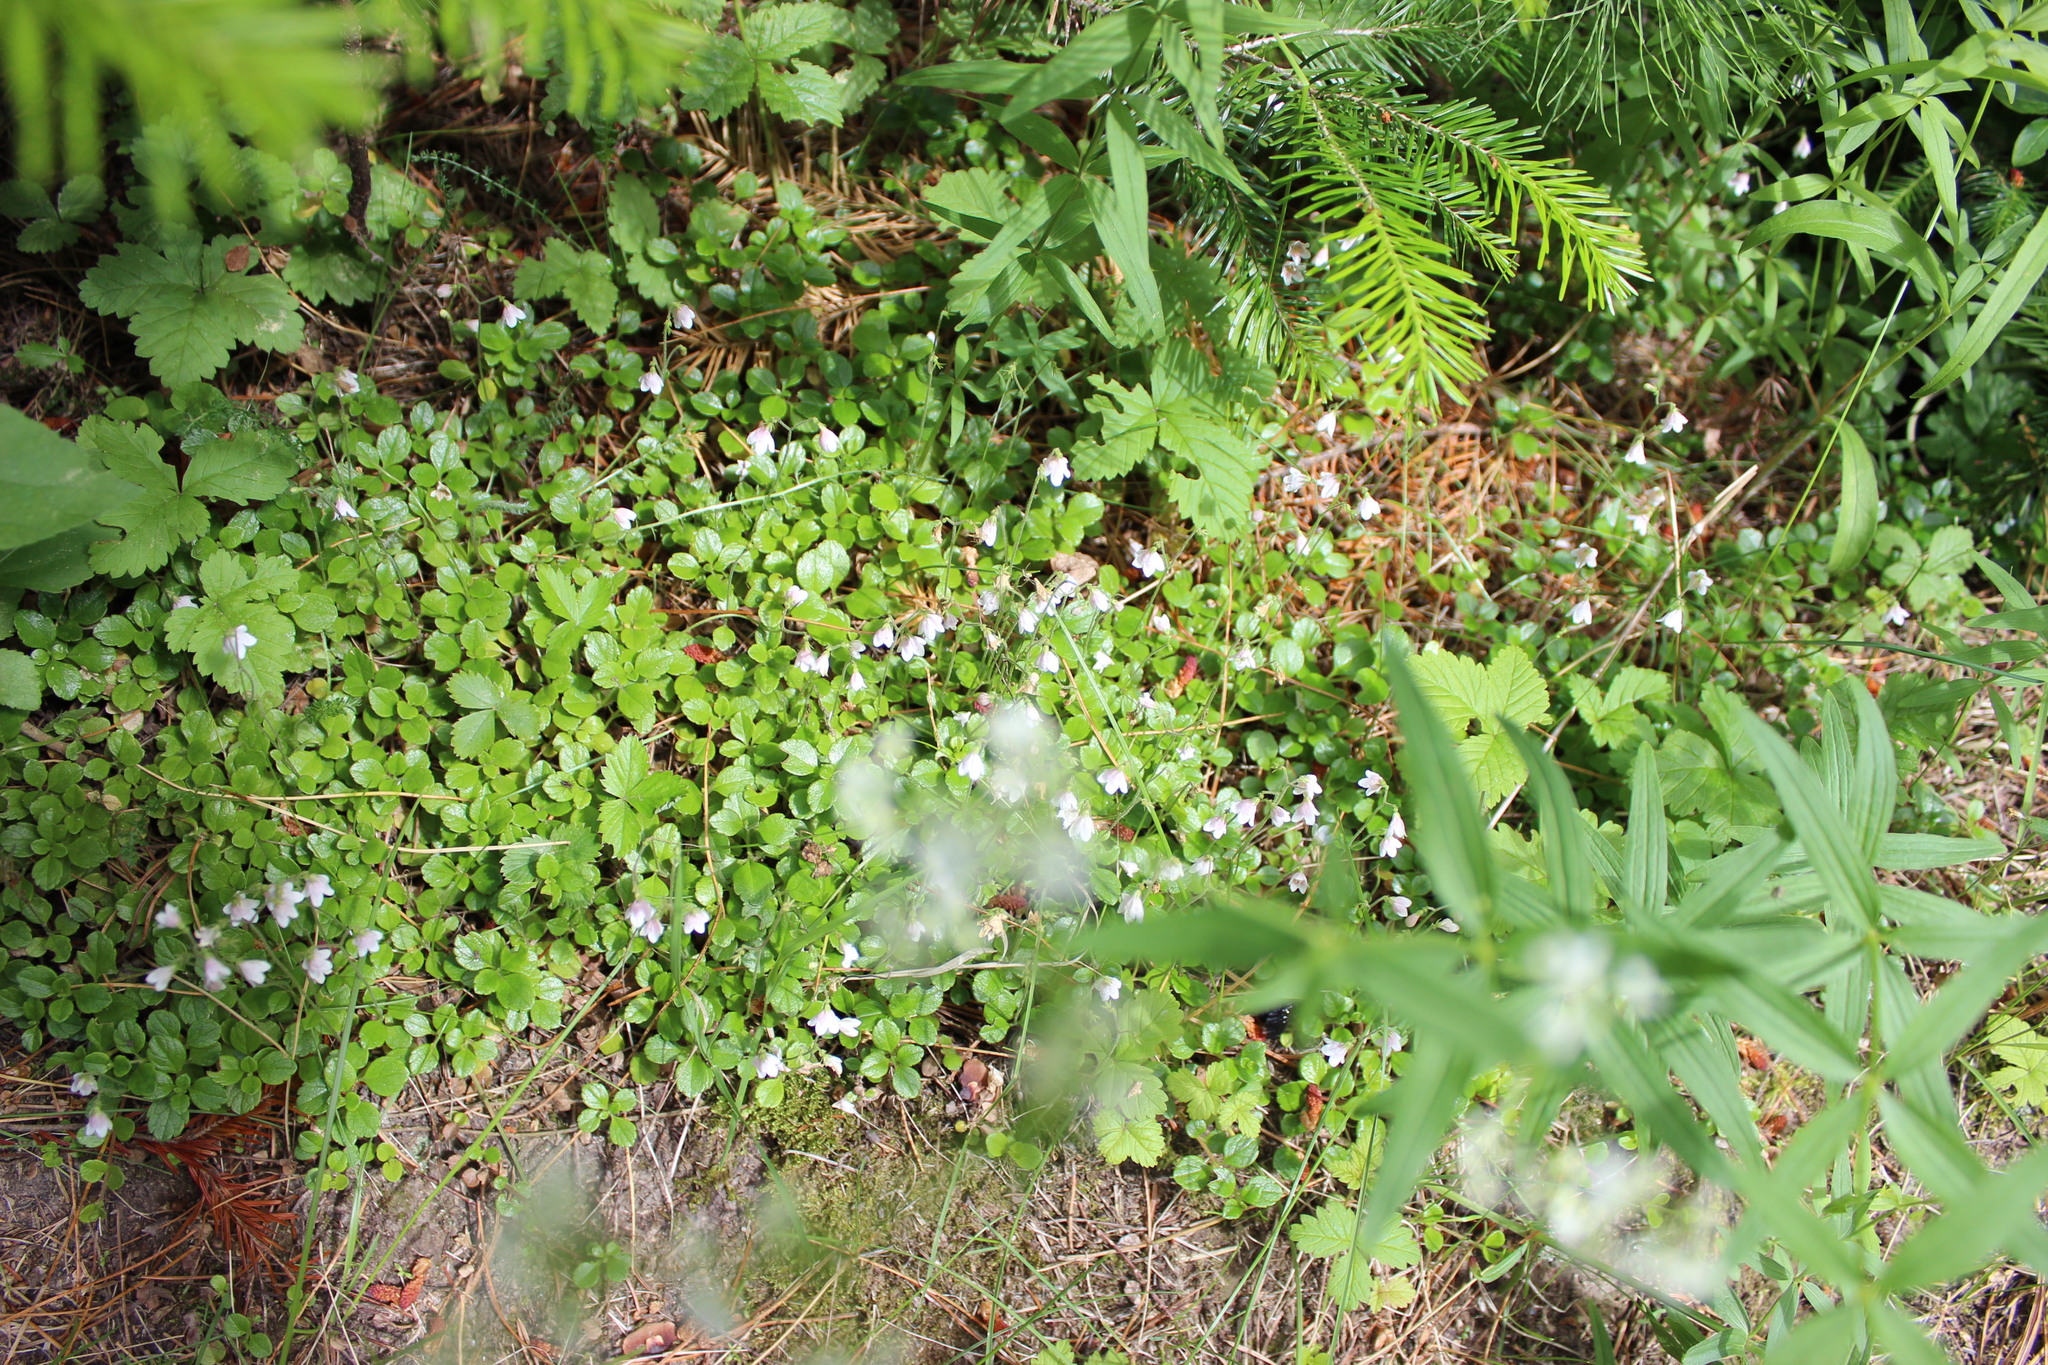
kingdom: Plantae
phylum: Tracheophyta
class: Magnoliopsida
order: Dipsacales
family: Caprifoliaceae
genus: Linnaea
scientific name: Linnaea borealis
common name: Twinflower
